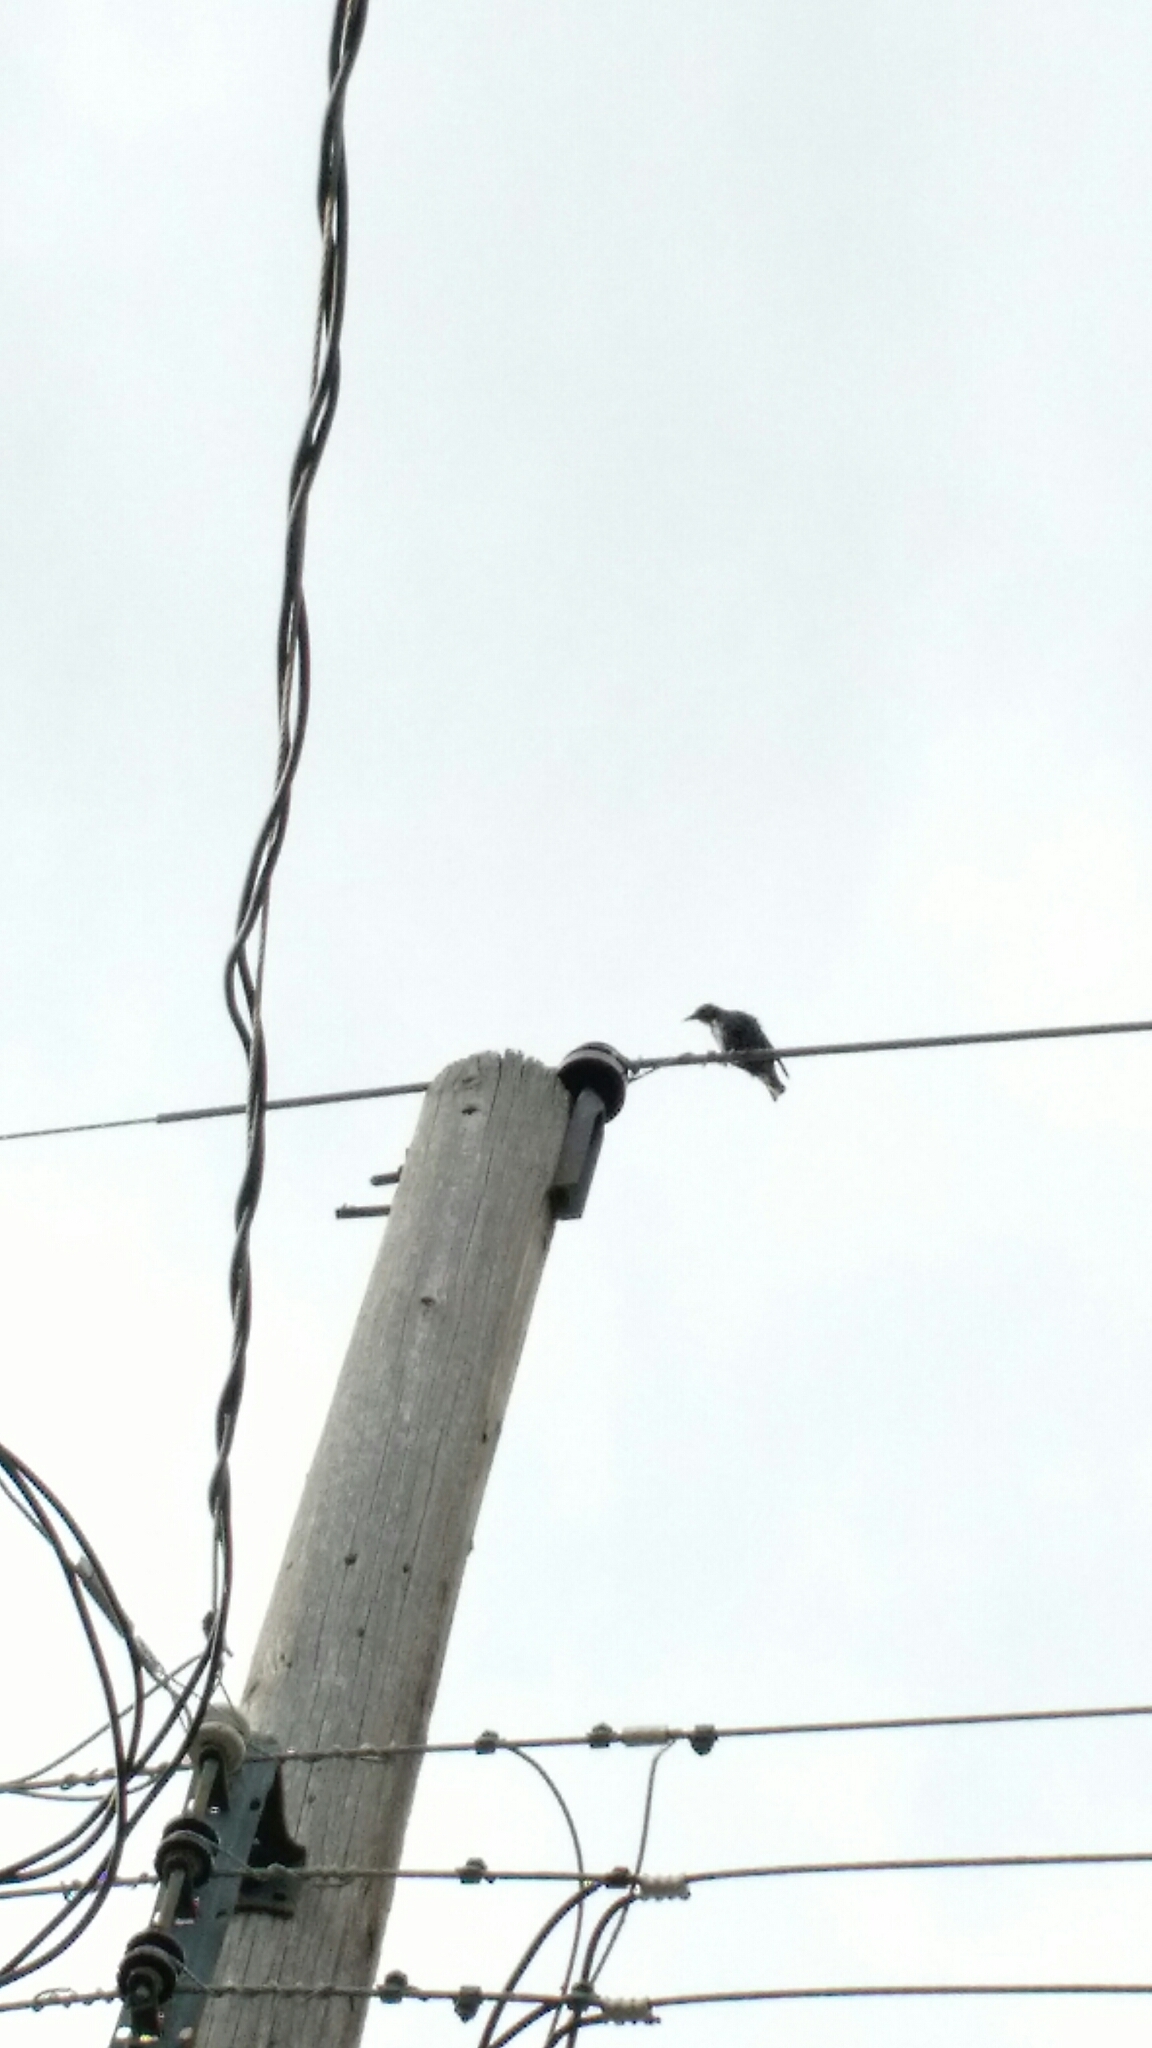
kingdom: Animalia
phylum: Chordata
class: Aves
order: Passeriformes
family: Sturnidae
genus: Sturnus
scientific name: Sturnus vulgaris
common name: Common starling
